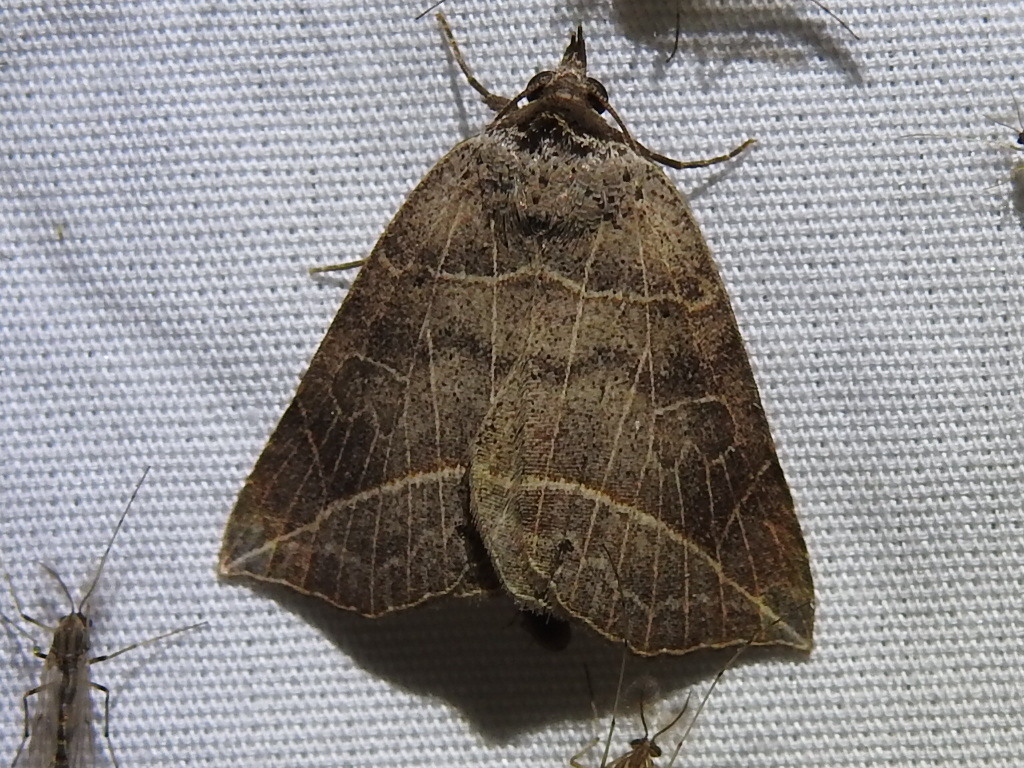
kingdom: Animalia
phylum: Arthropoda
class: Insecta
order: Lepidoptera
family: Erebidae
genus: Isogona
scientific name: Isogona tenuis
